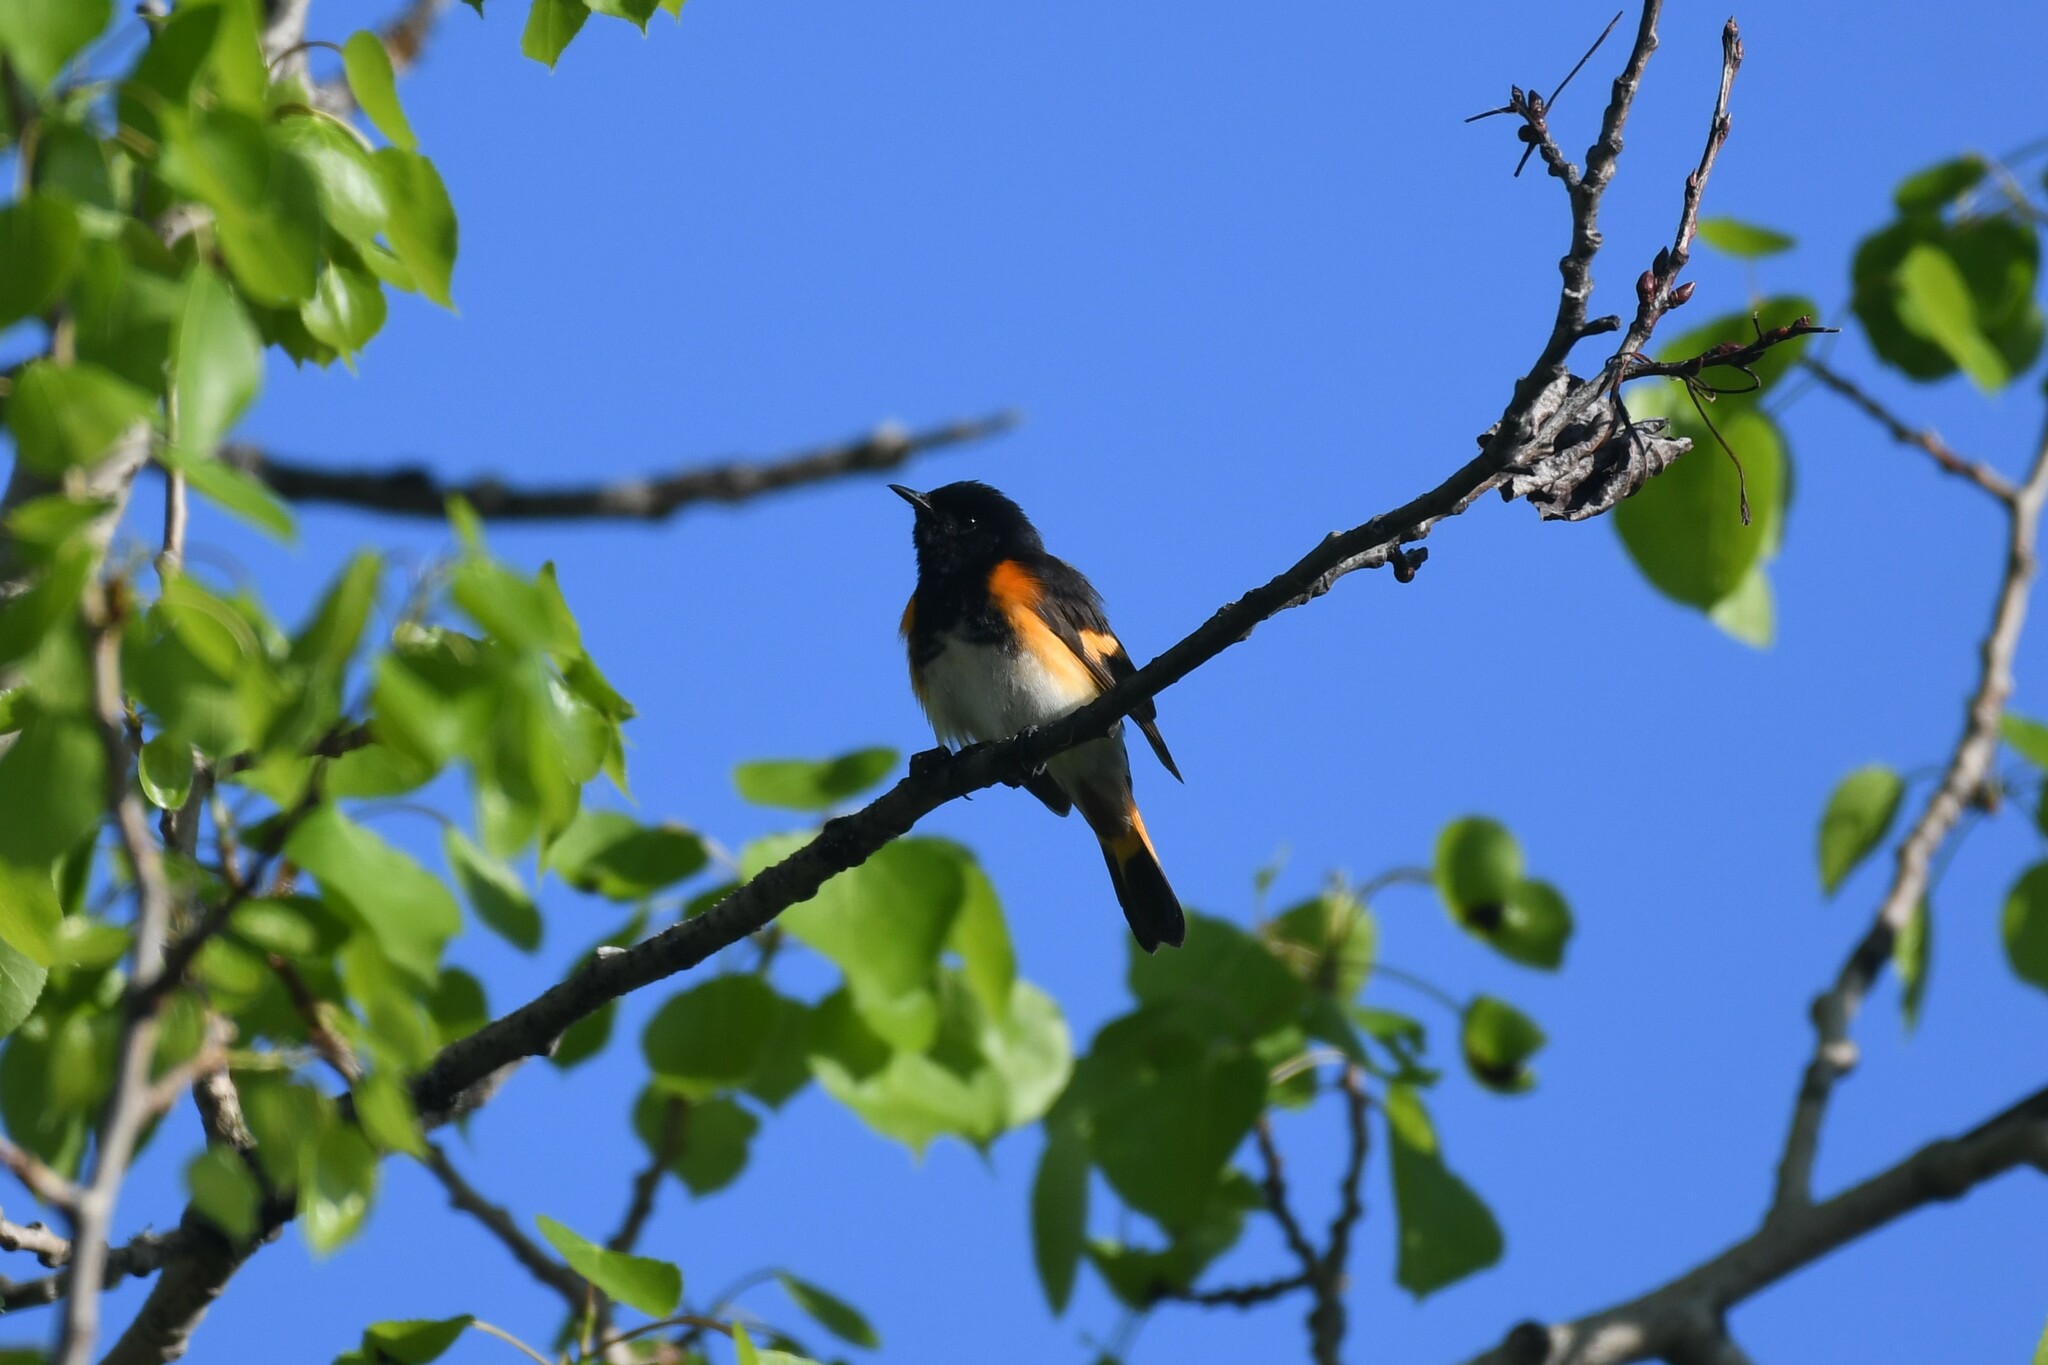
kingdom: Animalia
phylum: Chordata
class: Aves
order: Passeriformes
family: Parulidae
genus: Setophaga
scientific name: Setophaga ruticilla
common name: American redstart
